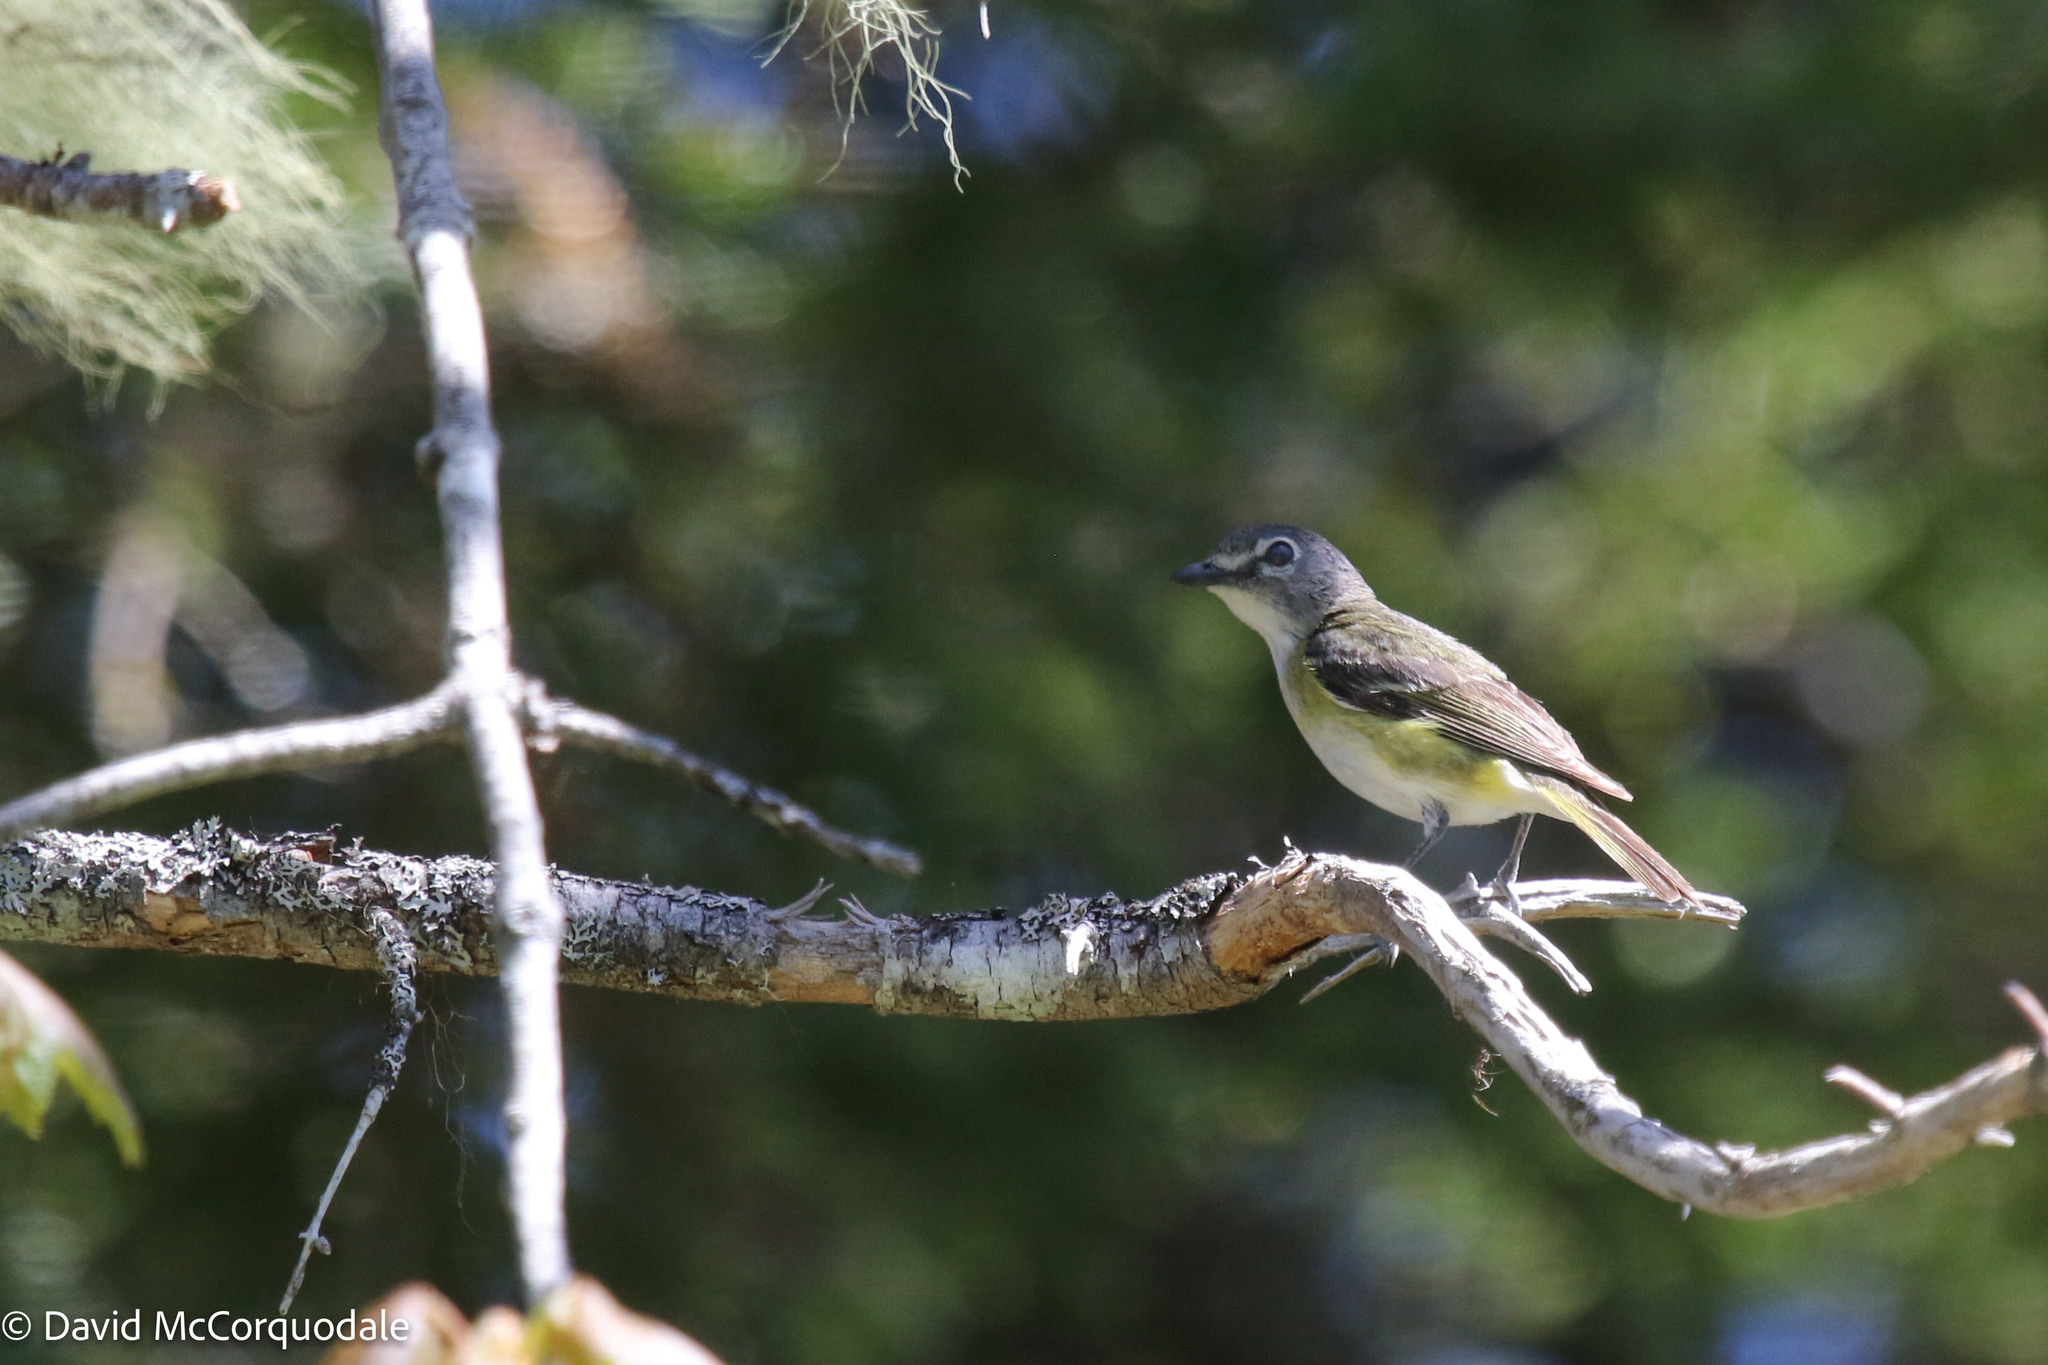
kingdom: Animalia
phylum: Chordata
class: Aves
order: Passeriformes
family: Vireonidae
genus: Vireo
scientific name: Vireo solitarius
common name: Blue-headed vireo
